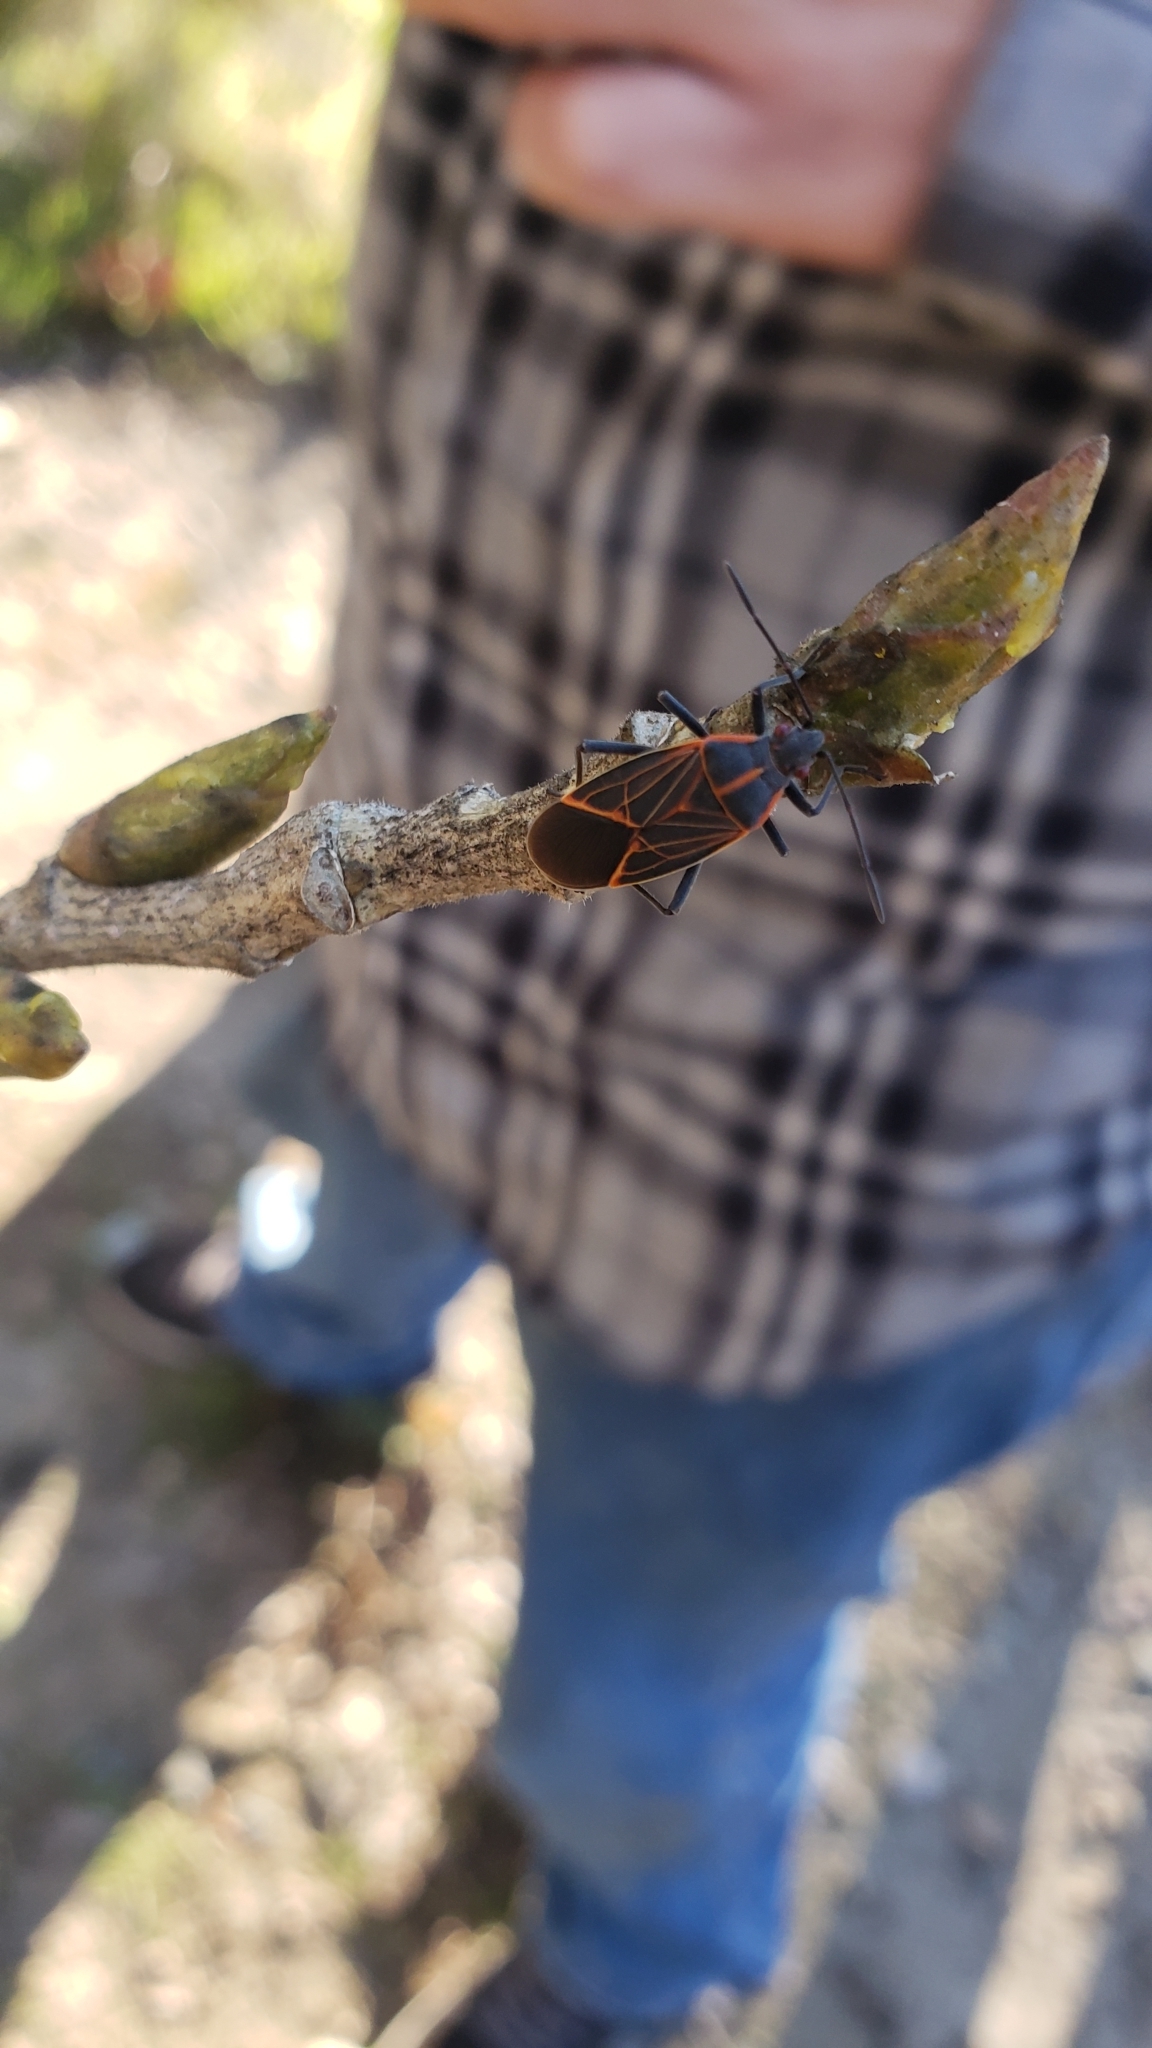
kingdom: Animalia
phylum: Arthropoda
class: Insecta
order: Hemiptera
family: Rhopalidae
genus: Boisea
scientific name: Boisea rubrolineata
